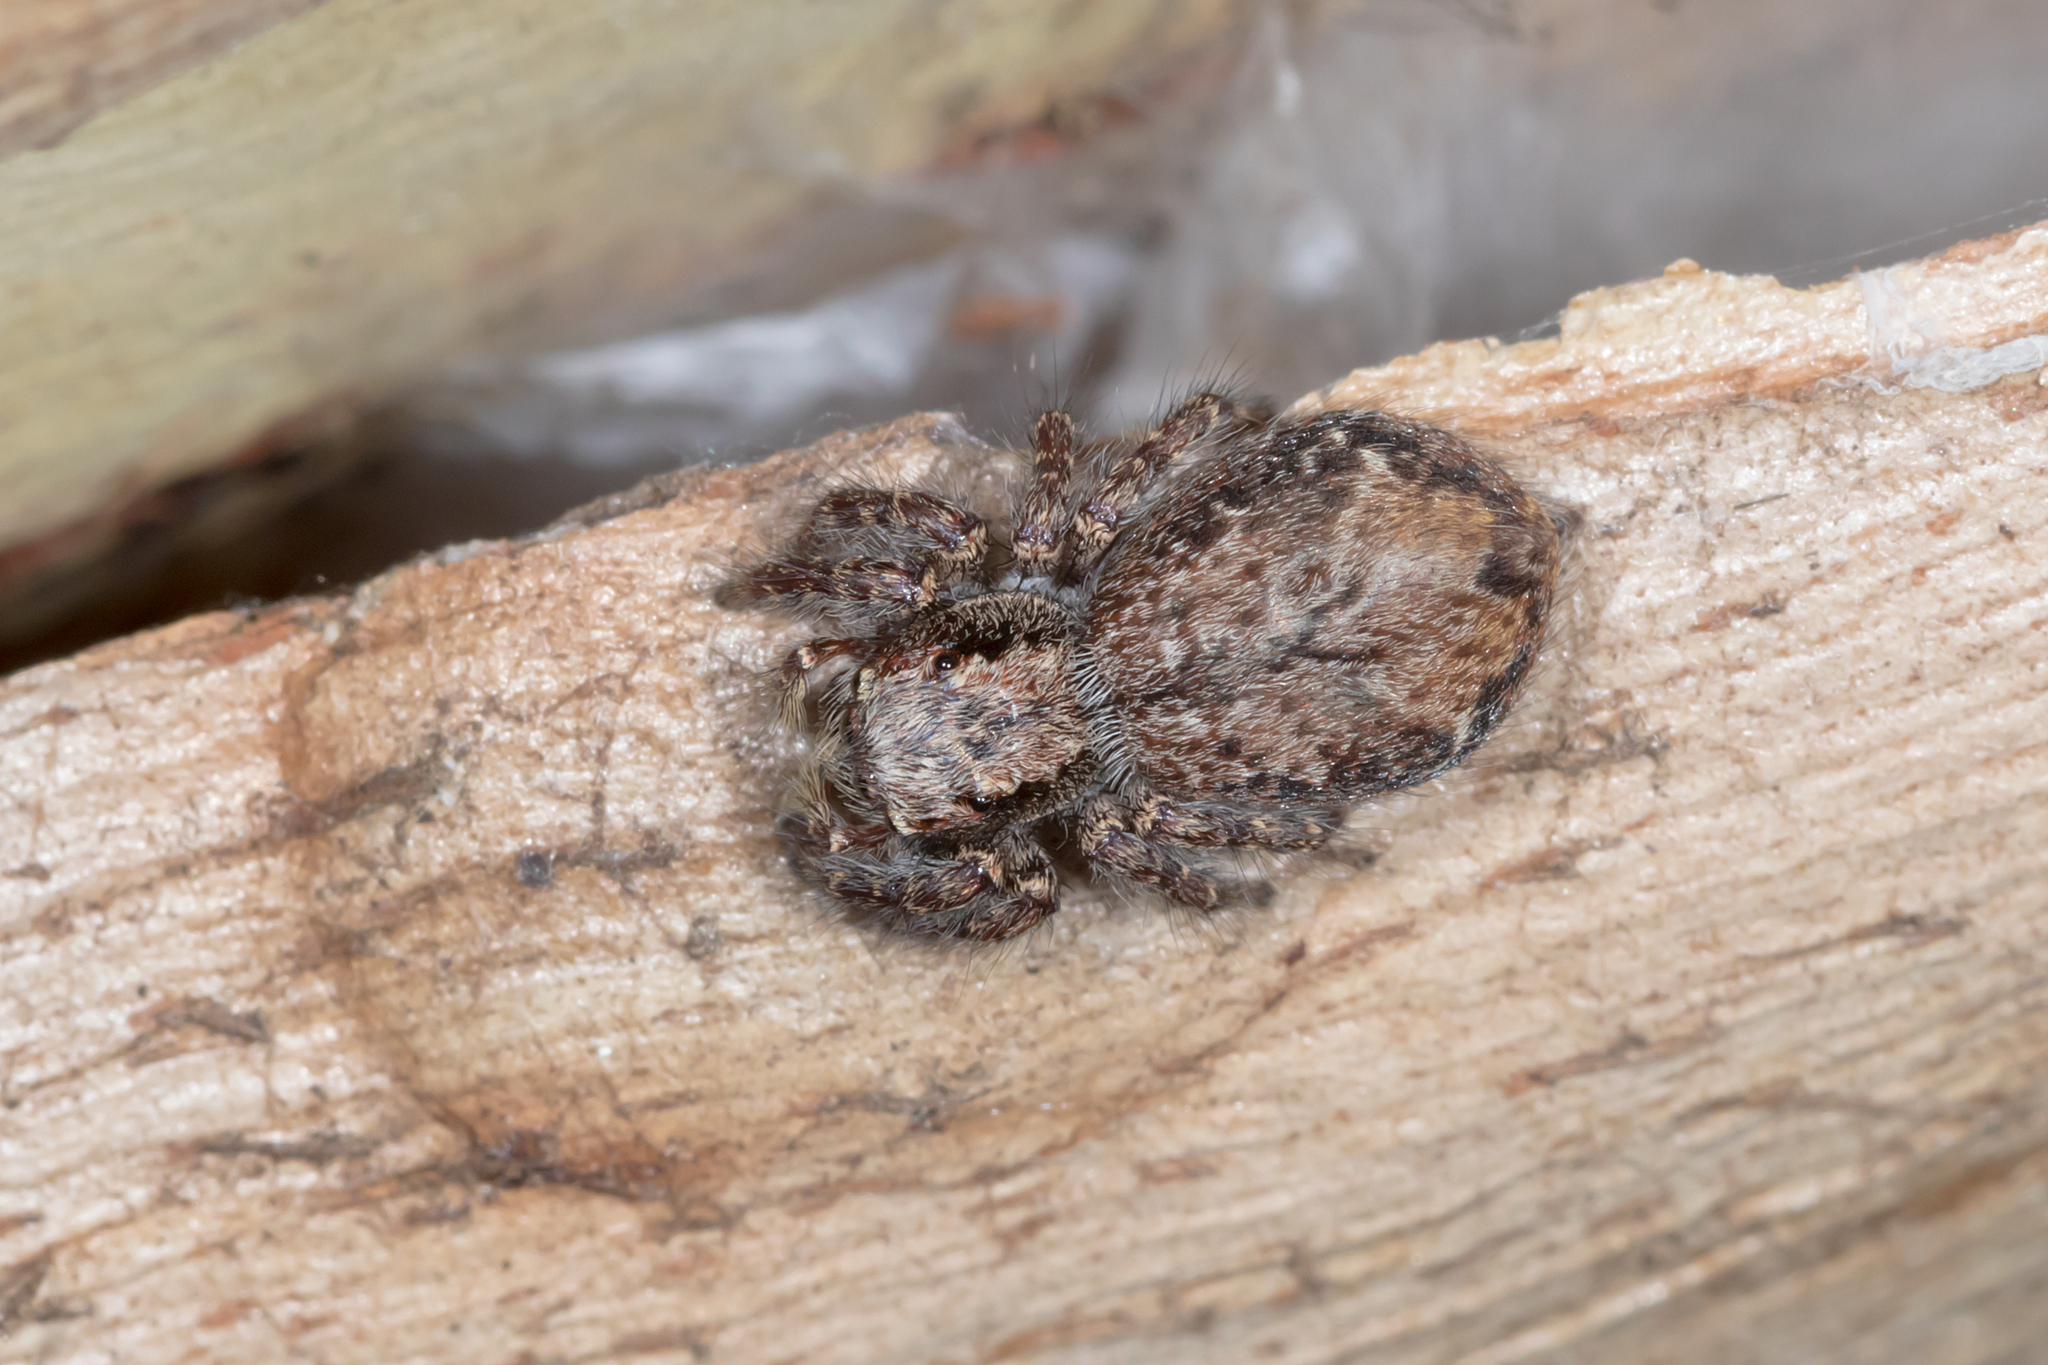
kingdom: Animalia
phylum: Arthropoda
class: Arachnida
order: Araneae
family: Salticidae
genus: Servaea
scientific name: Servaea incana
